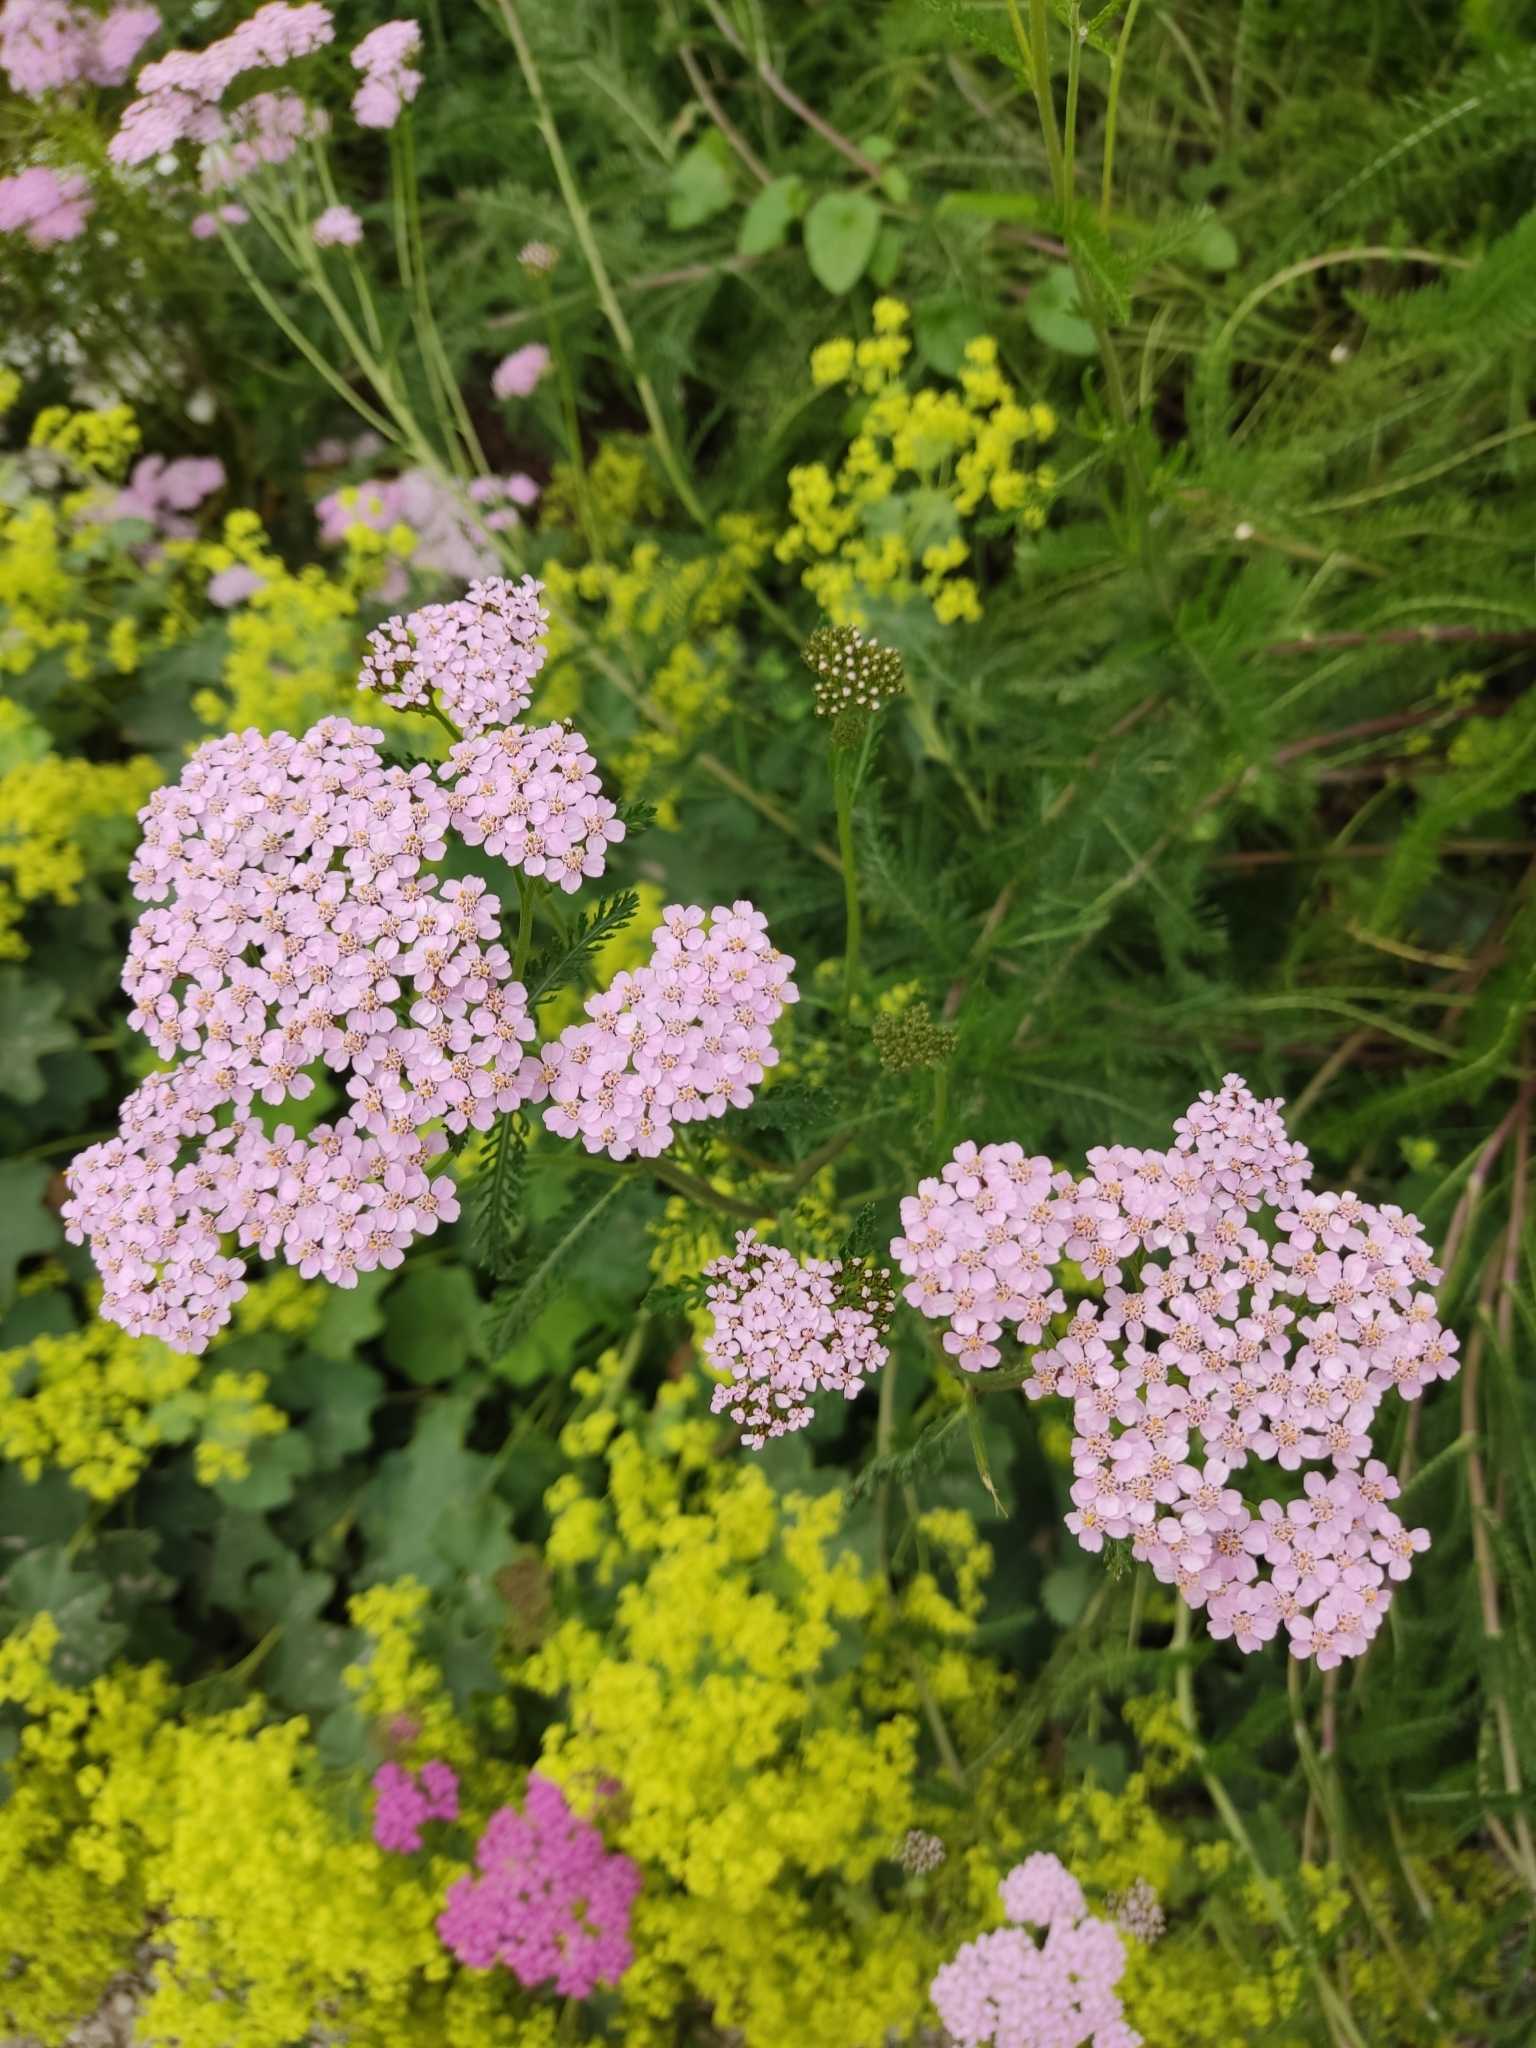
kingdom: Plantae
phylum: Tracheophyta
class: Magnoliopsida
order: Asterales
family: Asteraceae
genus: Achillea
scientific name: Achillea millefolium
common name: Yarrow
